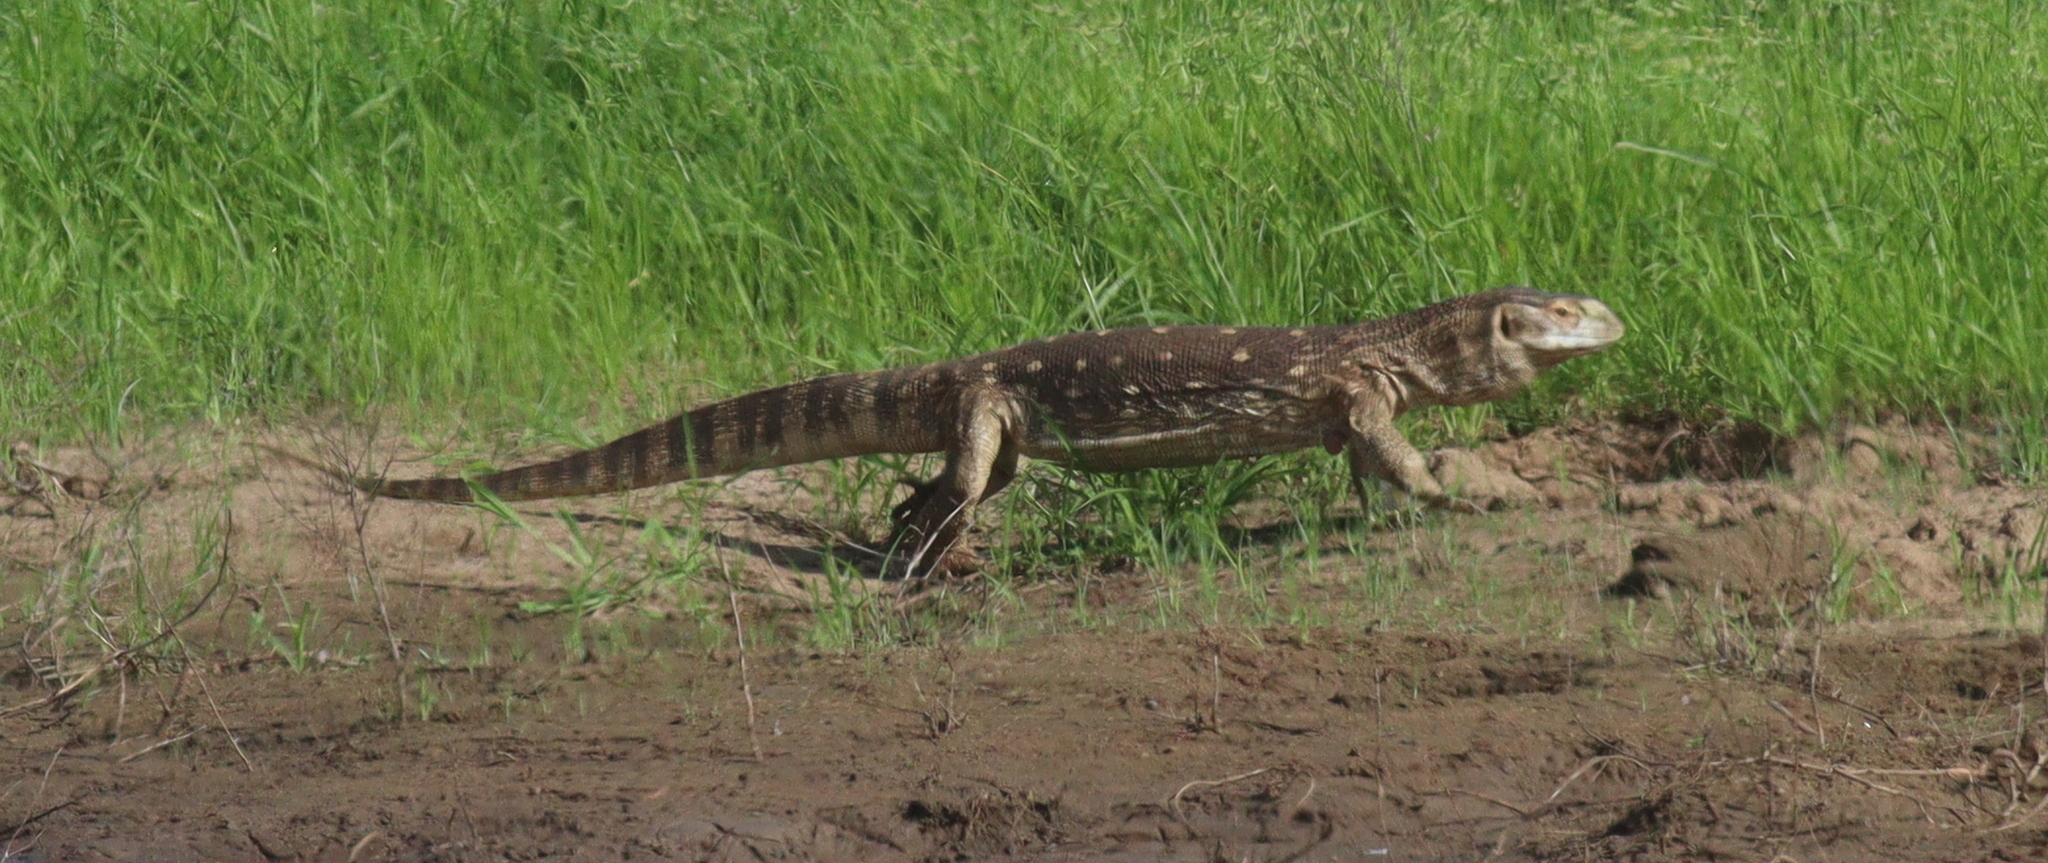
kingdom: Animalia
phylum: Chordata
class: Squamata
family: Varanidae
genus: Varanus
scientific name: Varanus albigularis
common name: White-throated monitor
